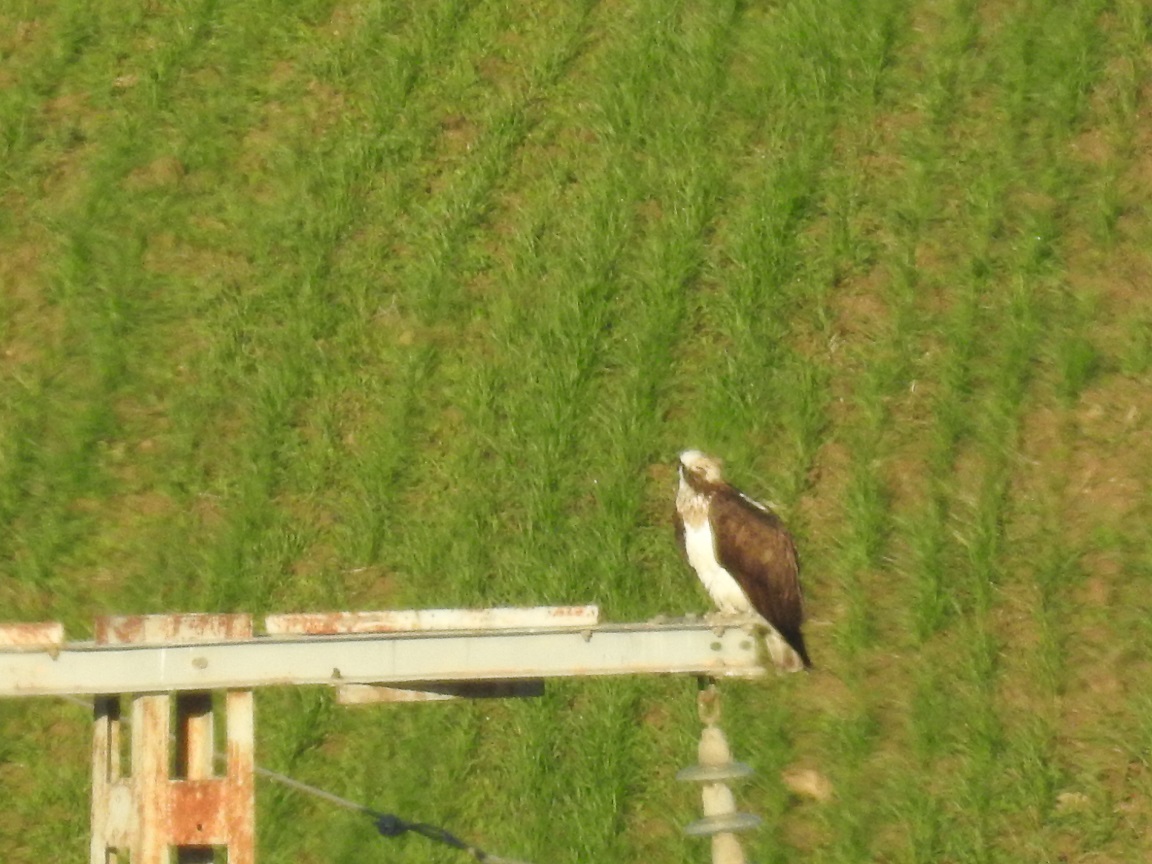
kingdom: Animalia
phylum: Chordata
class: Aves
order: Accipitriformes
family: Pandionidae
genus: Pandion
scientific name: Pandion haliaetus
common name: Osprey
